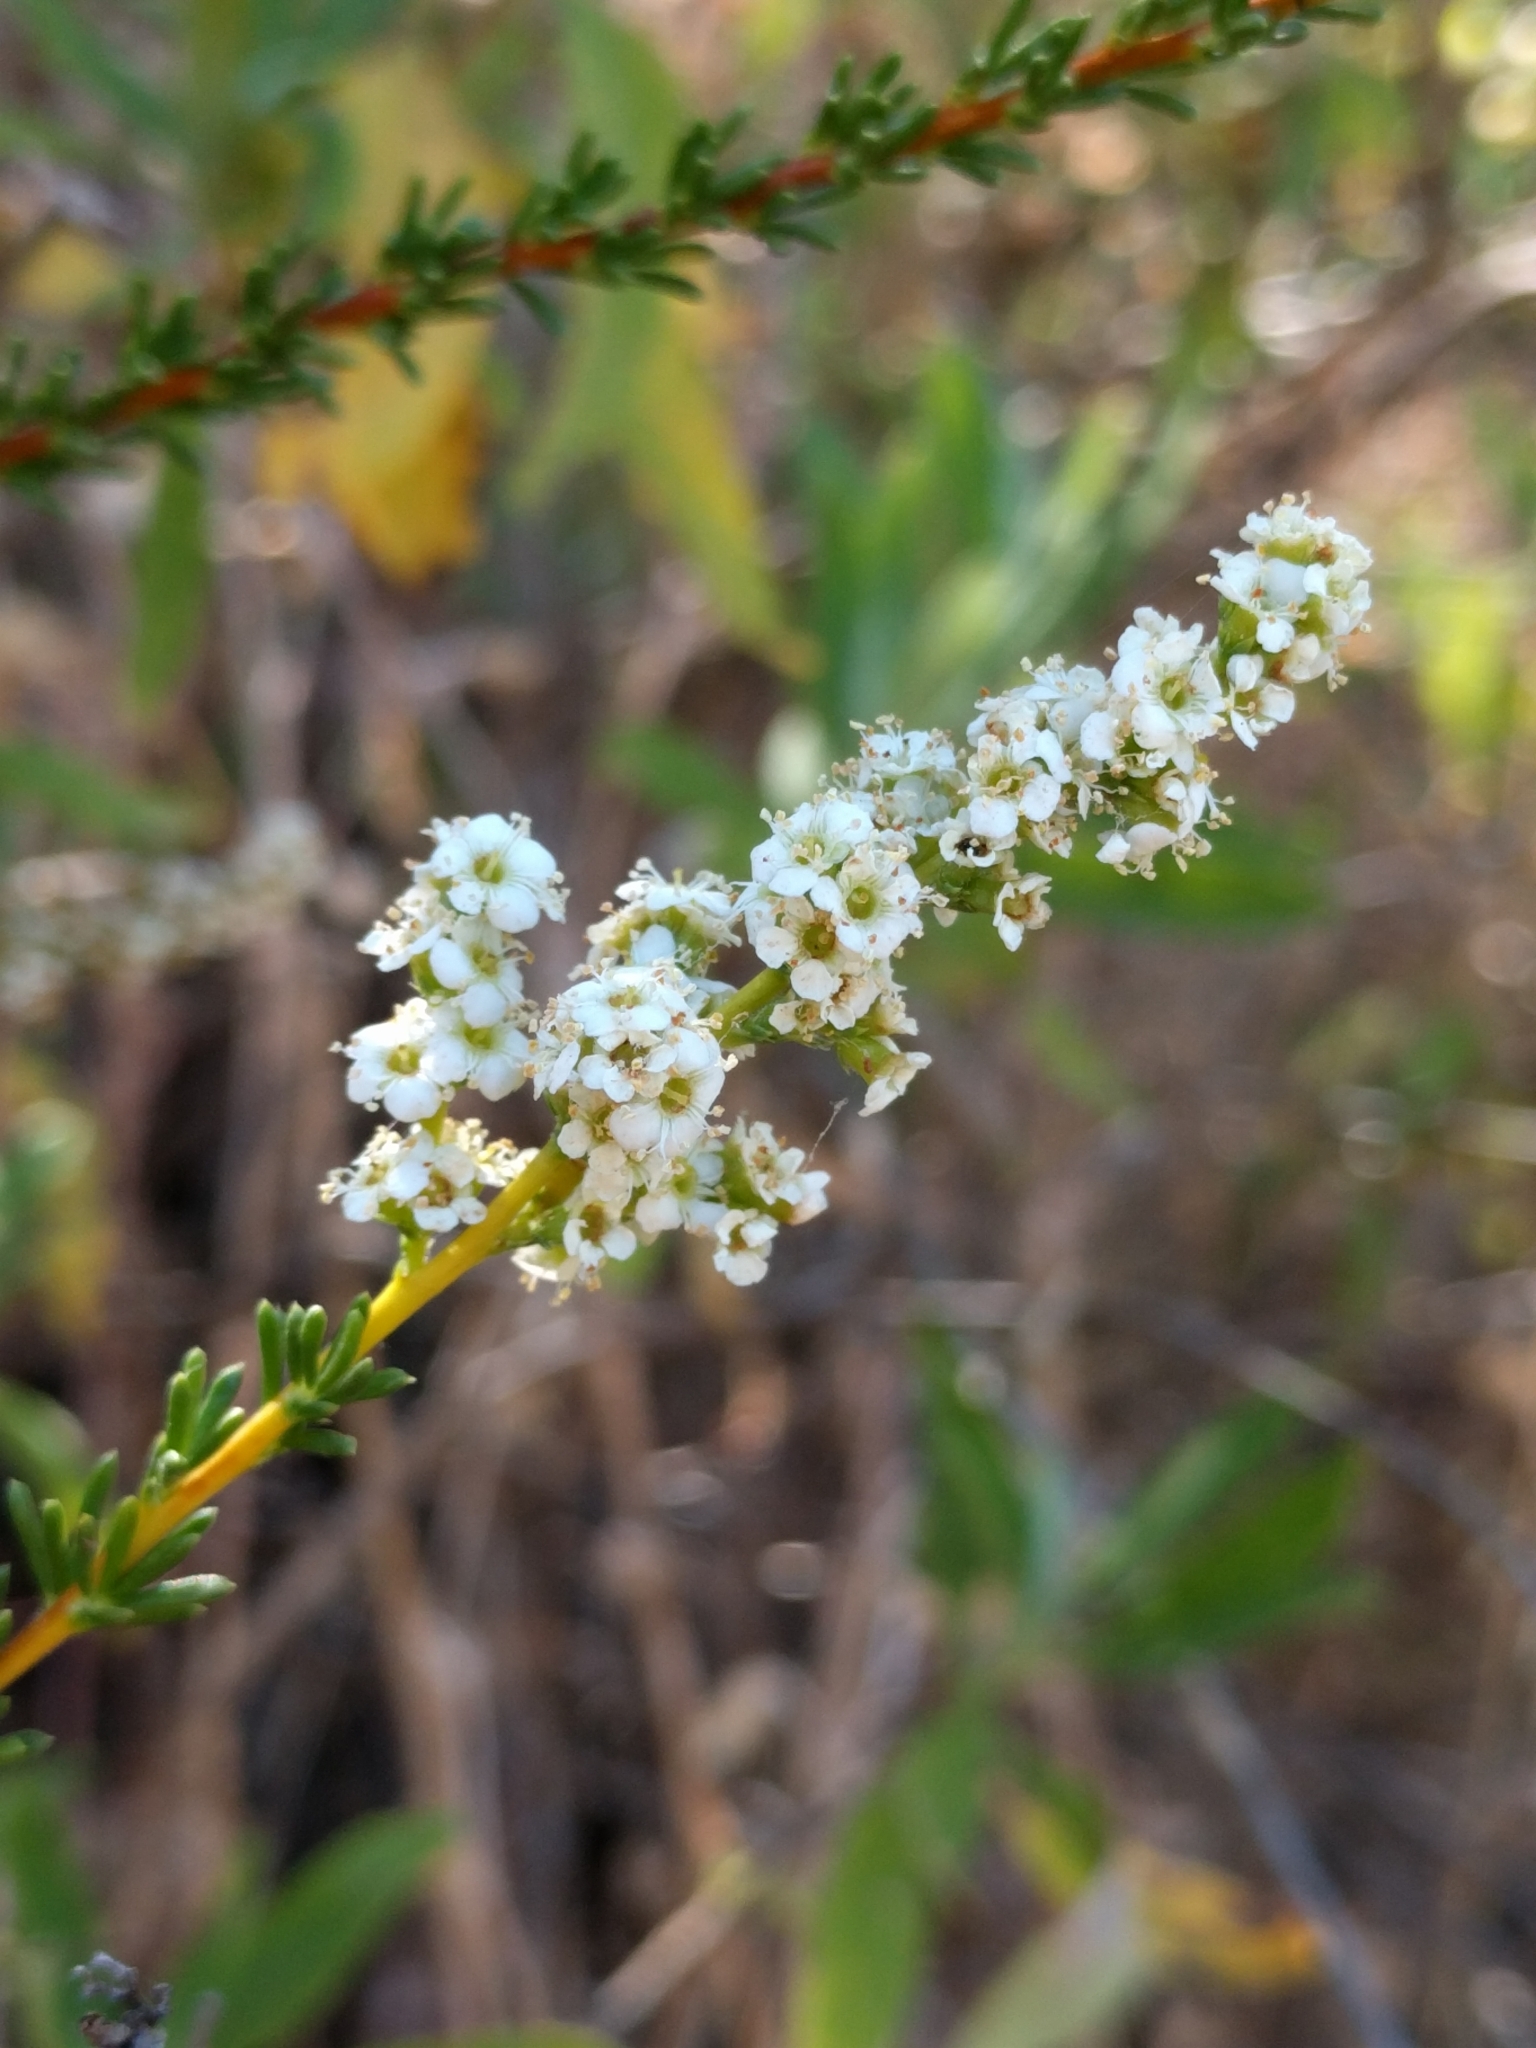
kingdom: Plantae
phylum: Tracheophyta
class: Magnoliopsida
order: Rosales
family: Rosaceae
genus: Adenostoma
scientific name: Adenostoma fasciculatum
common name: Chamise
